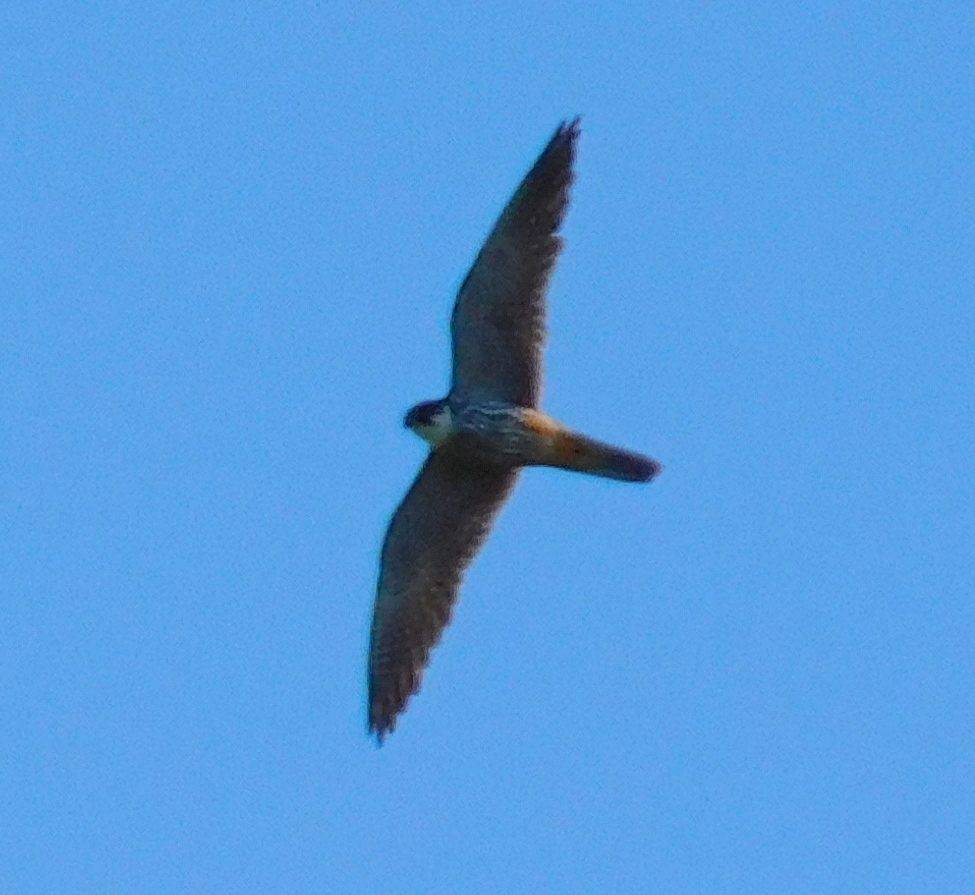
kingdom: Animalia
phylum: Chordata
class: Aves
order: Falconiformes
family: Falconidae
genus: Falco
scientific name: Falco subbuteo
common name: Eurasian hobby
